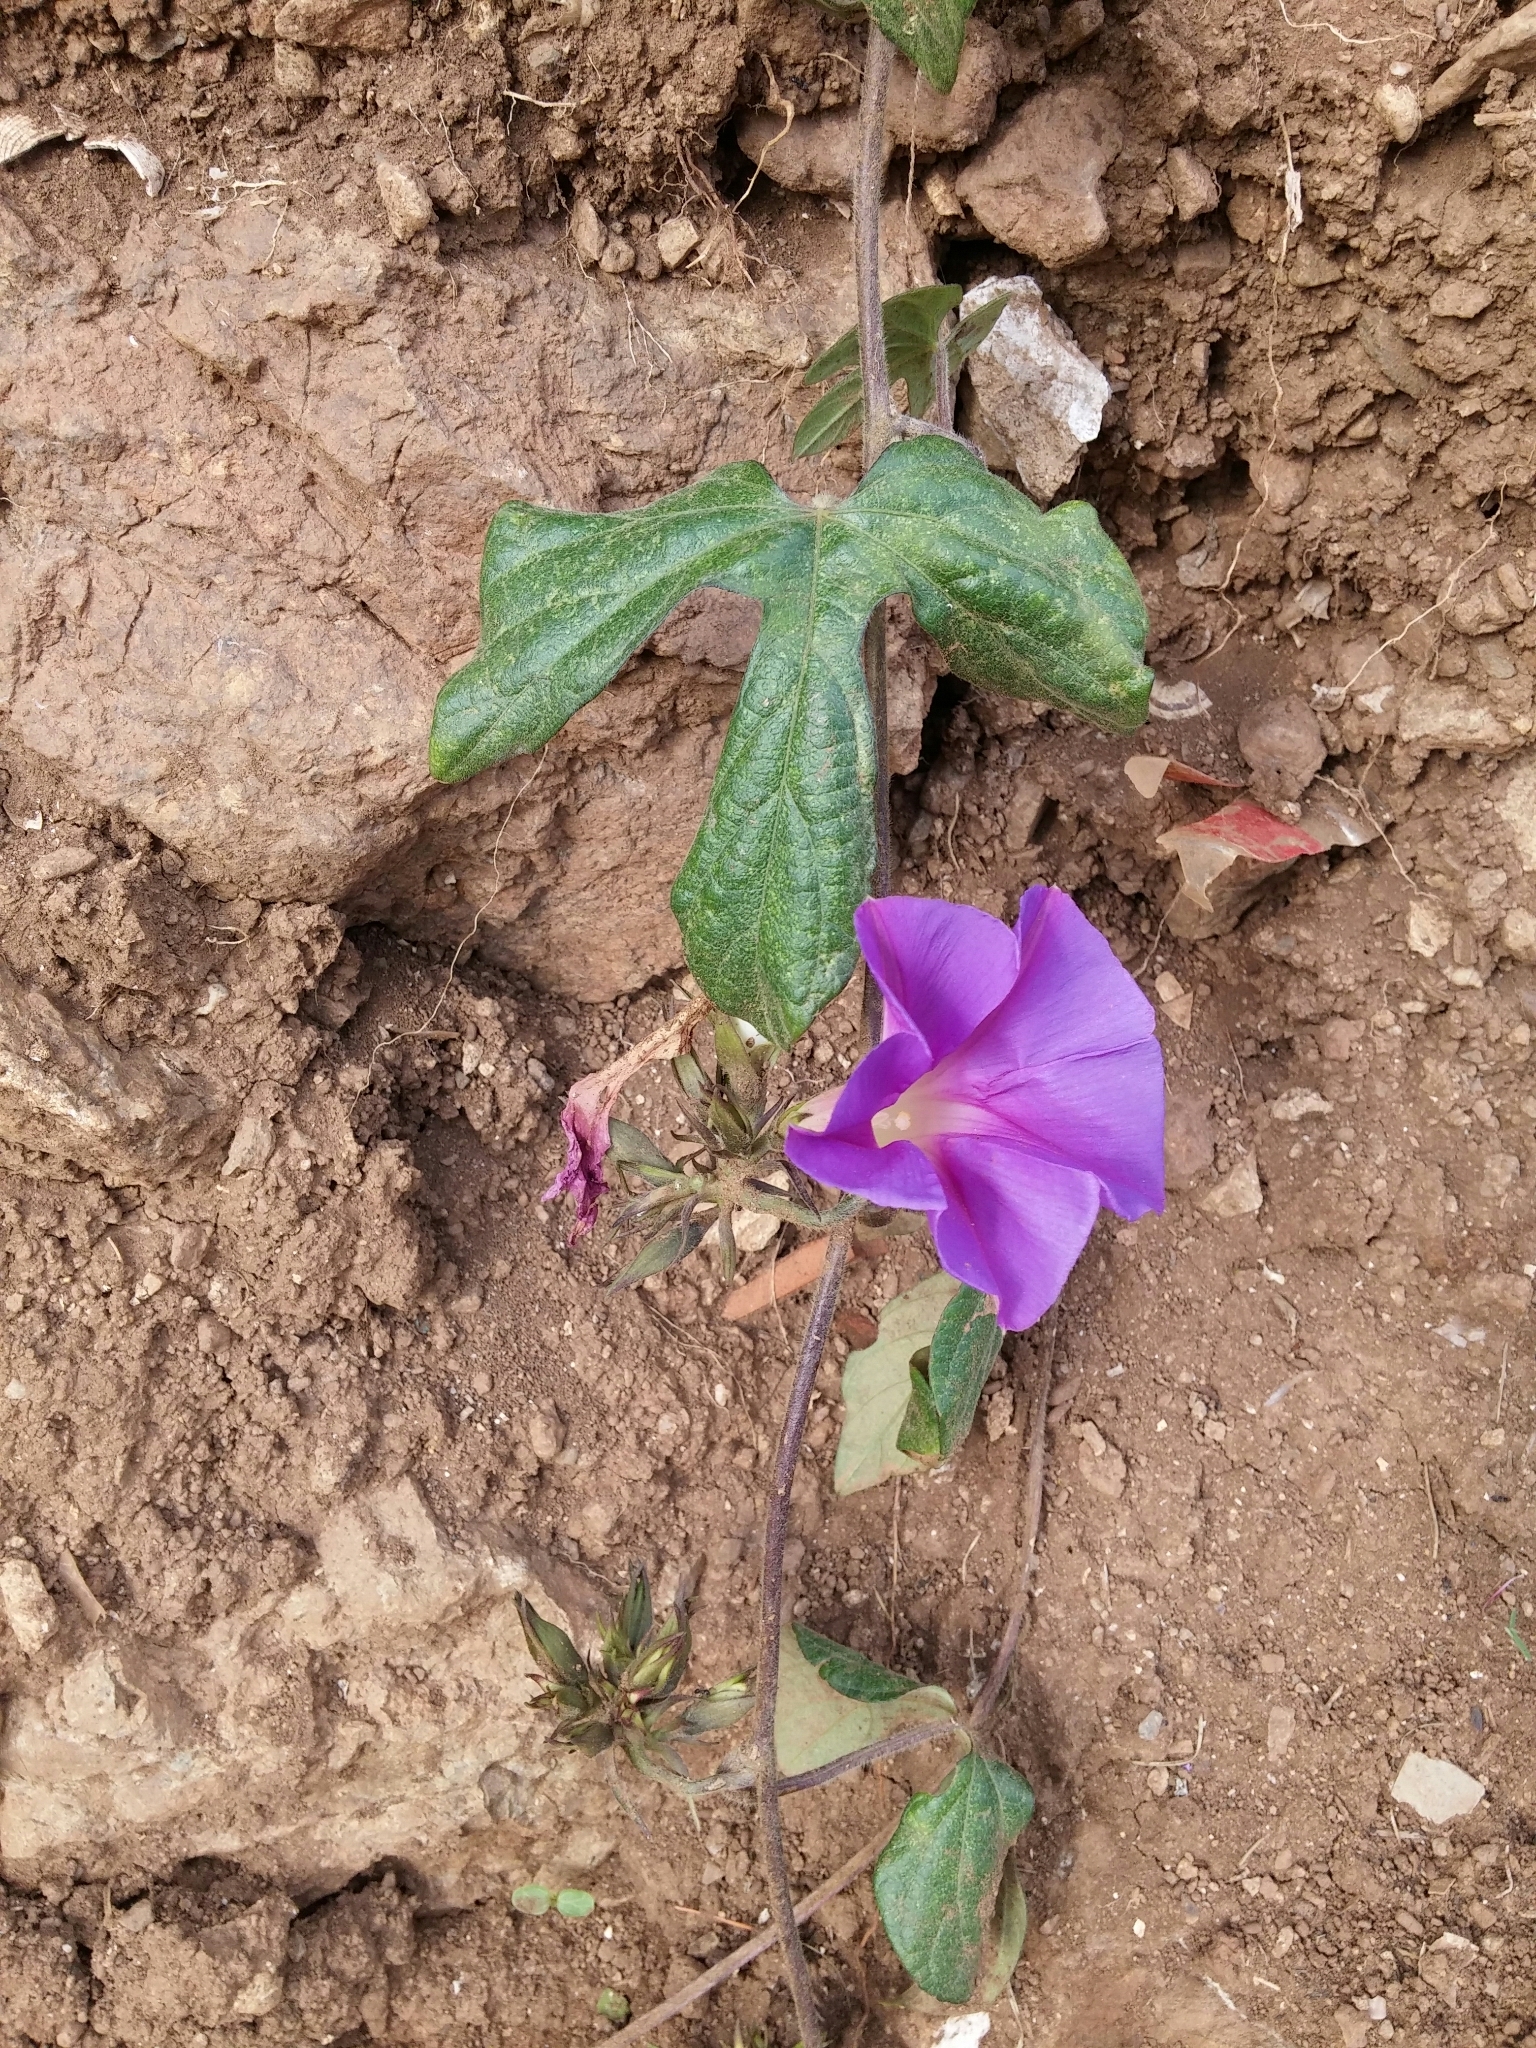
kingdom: Plantae
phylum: Tracheophyta
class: Magnoliopsida
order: Solanales
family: Convolvulaceae
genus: Ipomoea
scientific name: Ipomoea indica
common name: Blue dawnflower
